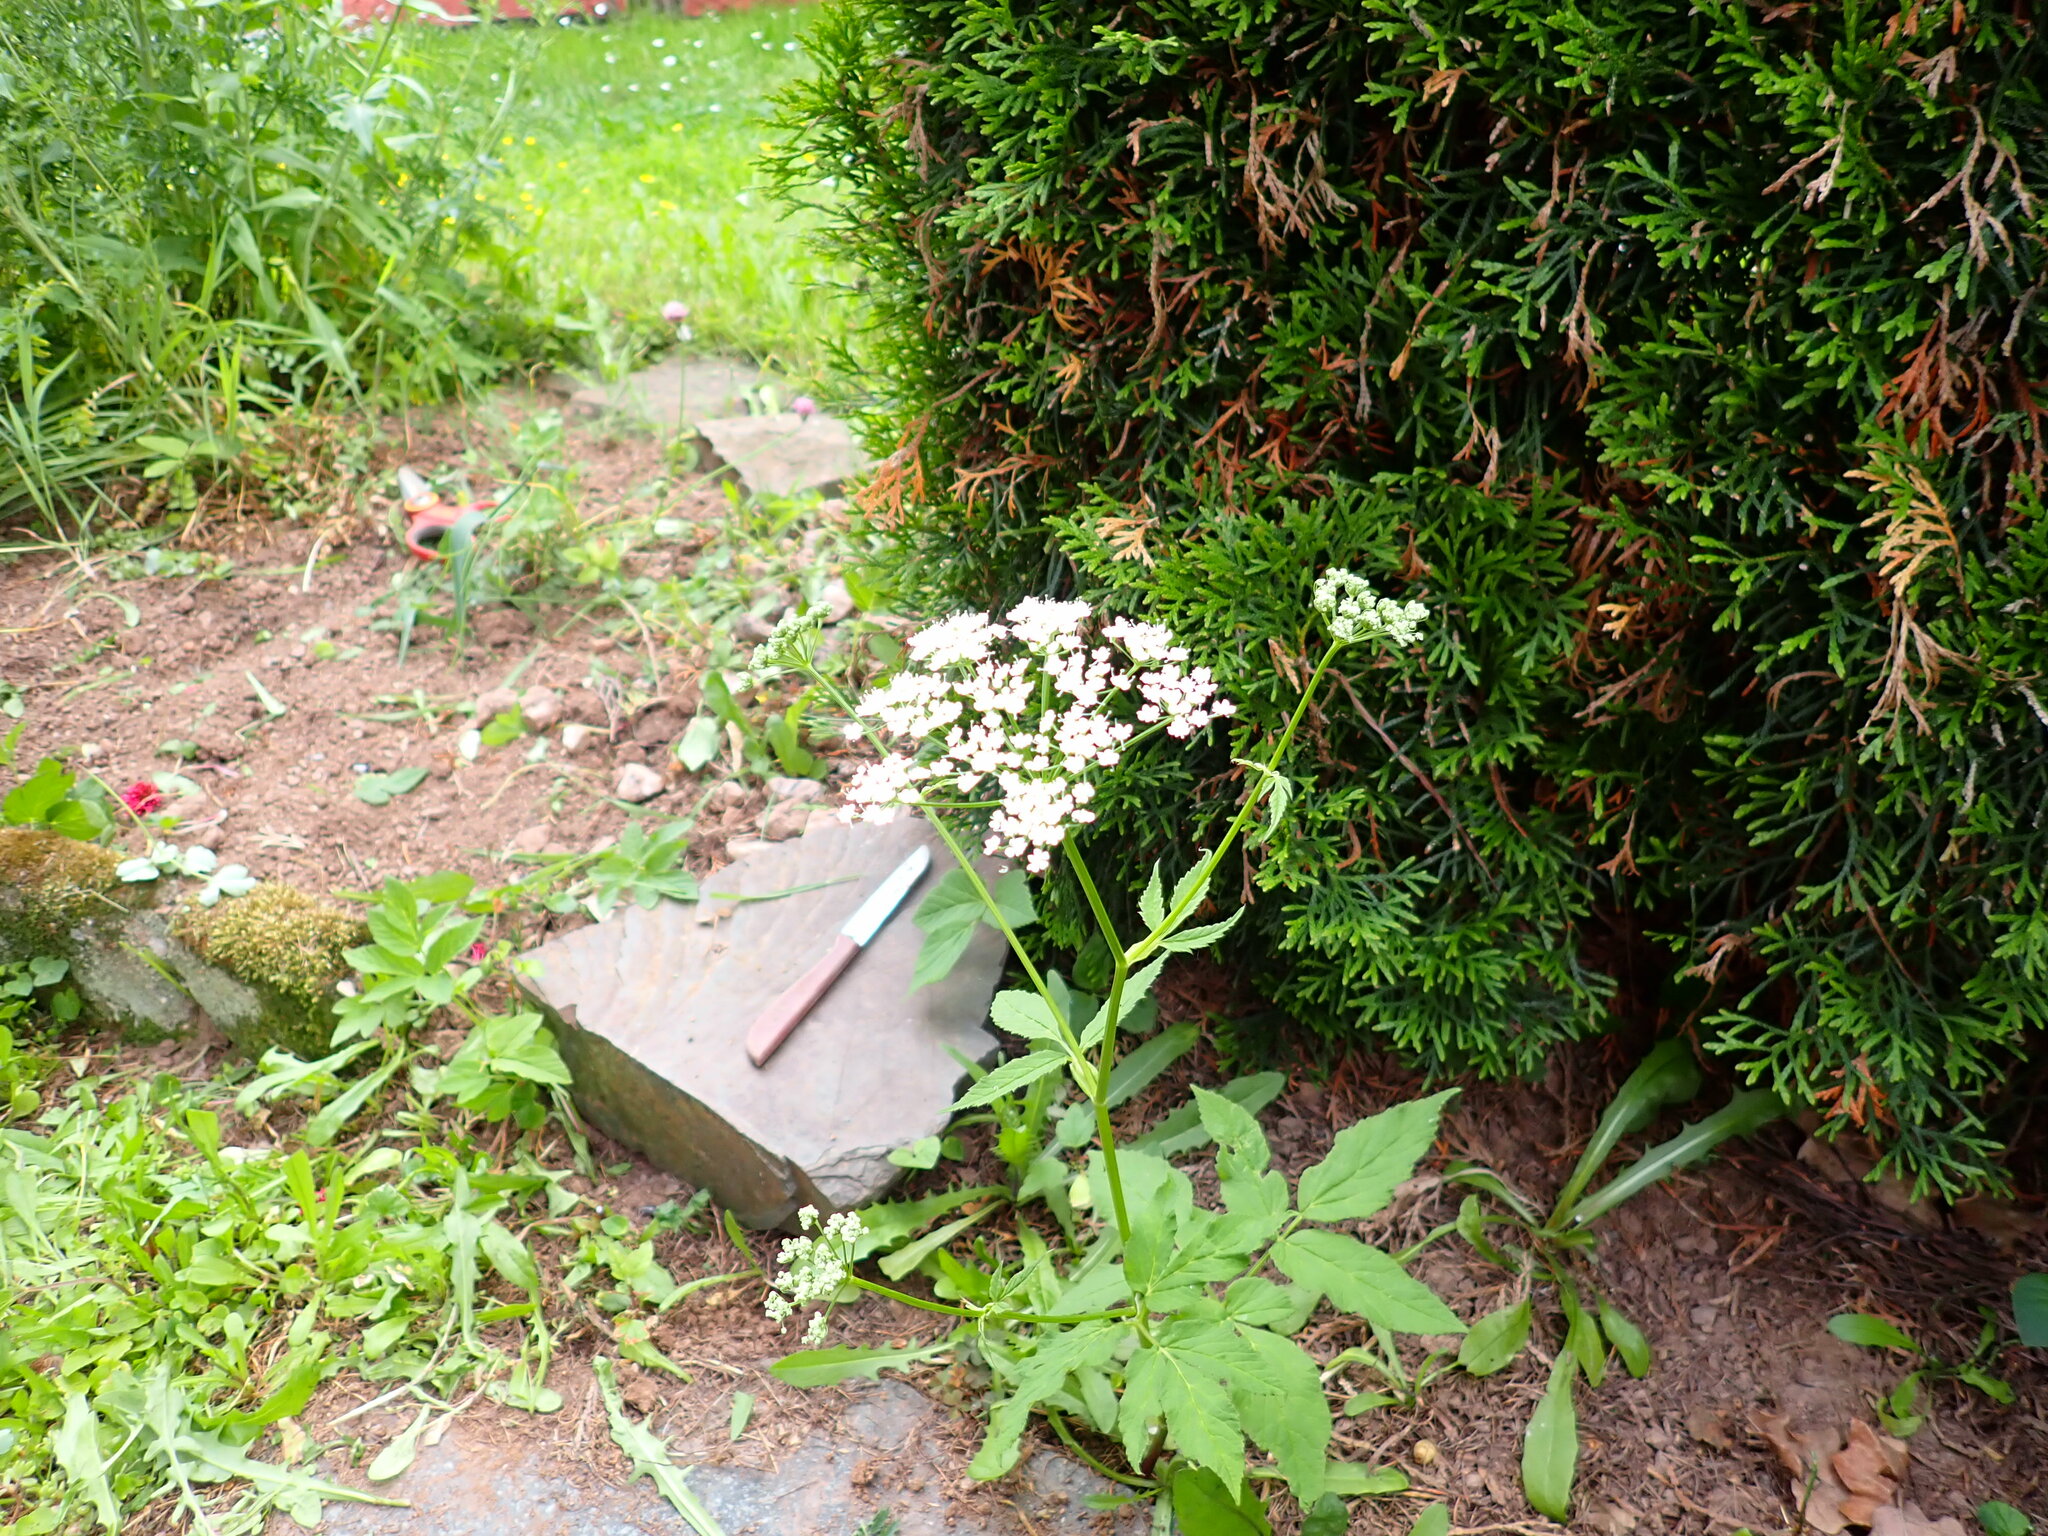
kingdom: Plantae
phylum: Tracheophyta
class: Magnoliopsida
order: Apiales
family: Apiaceae
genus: Aegopodium
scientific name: Aegopodium podagraria
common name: Ground-elder
